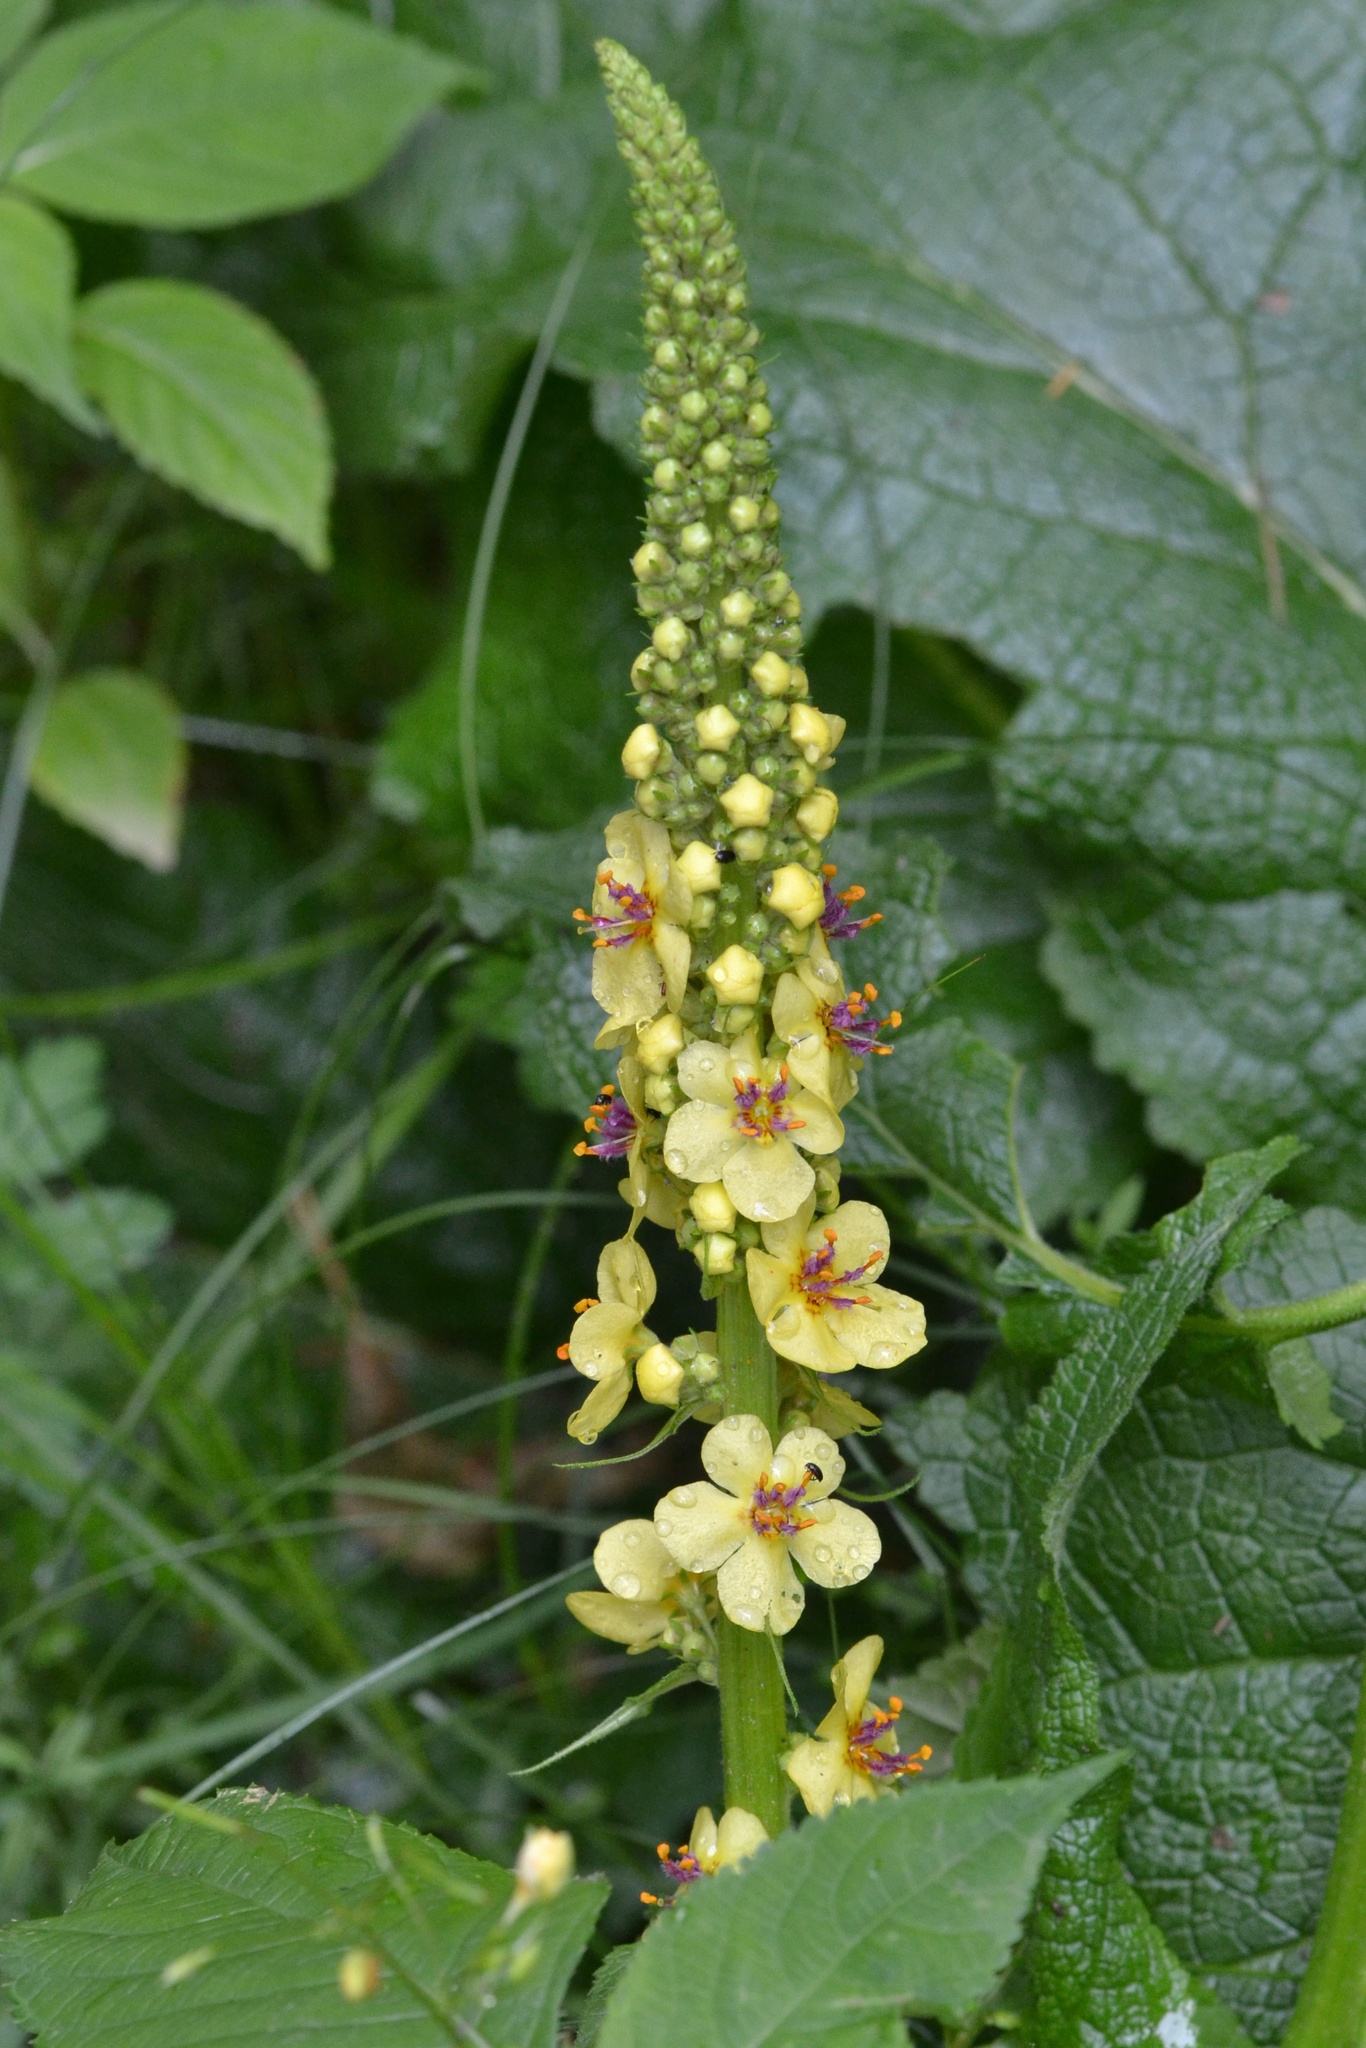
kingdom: Plantae
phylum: Tracheophyta
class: Magnoliopsida
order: Lamiales
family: Scrophulariaceae
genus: Verbascum
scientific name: Verbascum nigrum
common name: Dark mullein
